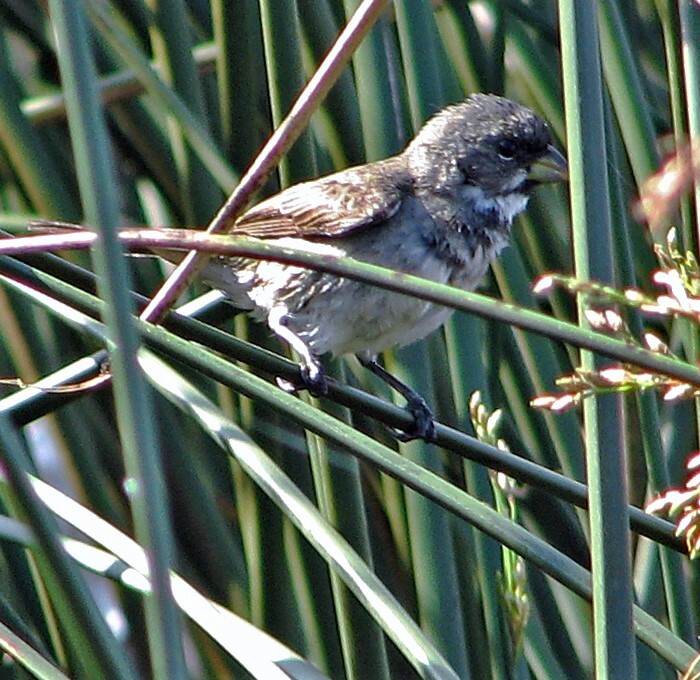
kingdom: Animalia
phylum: Chordata
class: Aves
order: Passeriformes
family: Thraupidae
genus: Sporophila
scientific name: Sporophila caerulescens
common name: Double-collared seedeater
